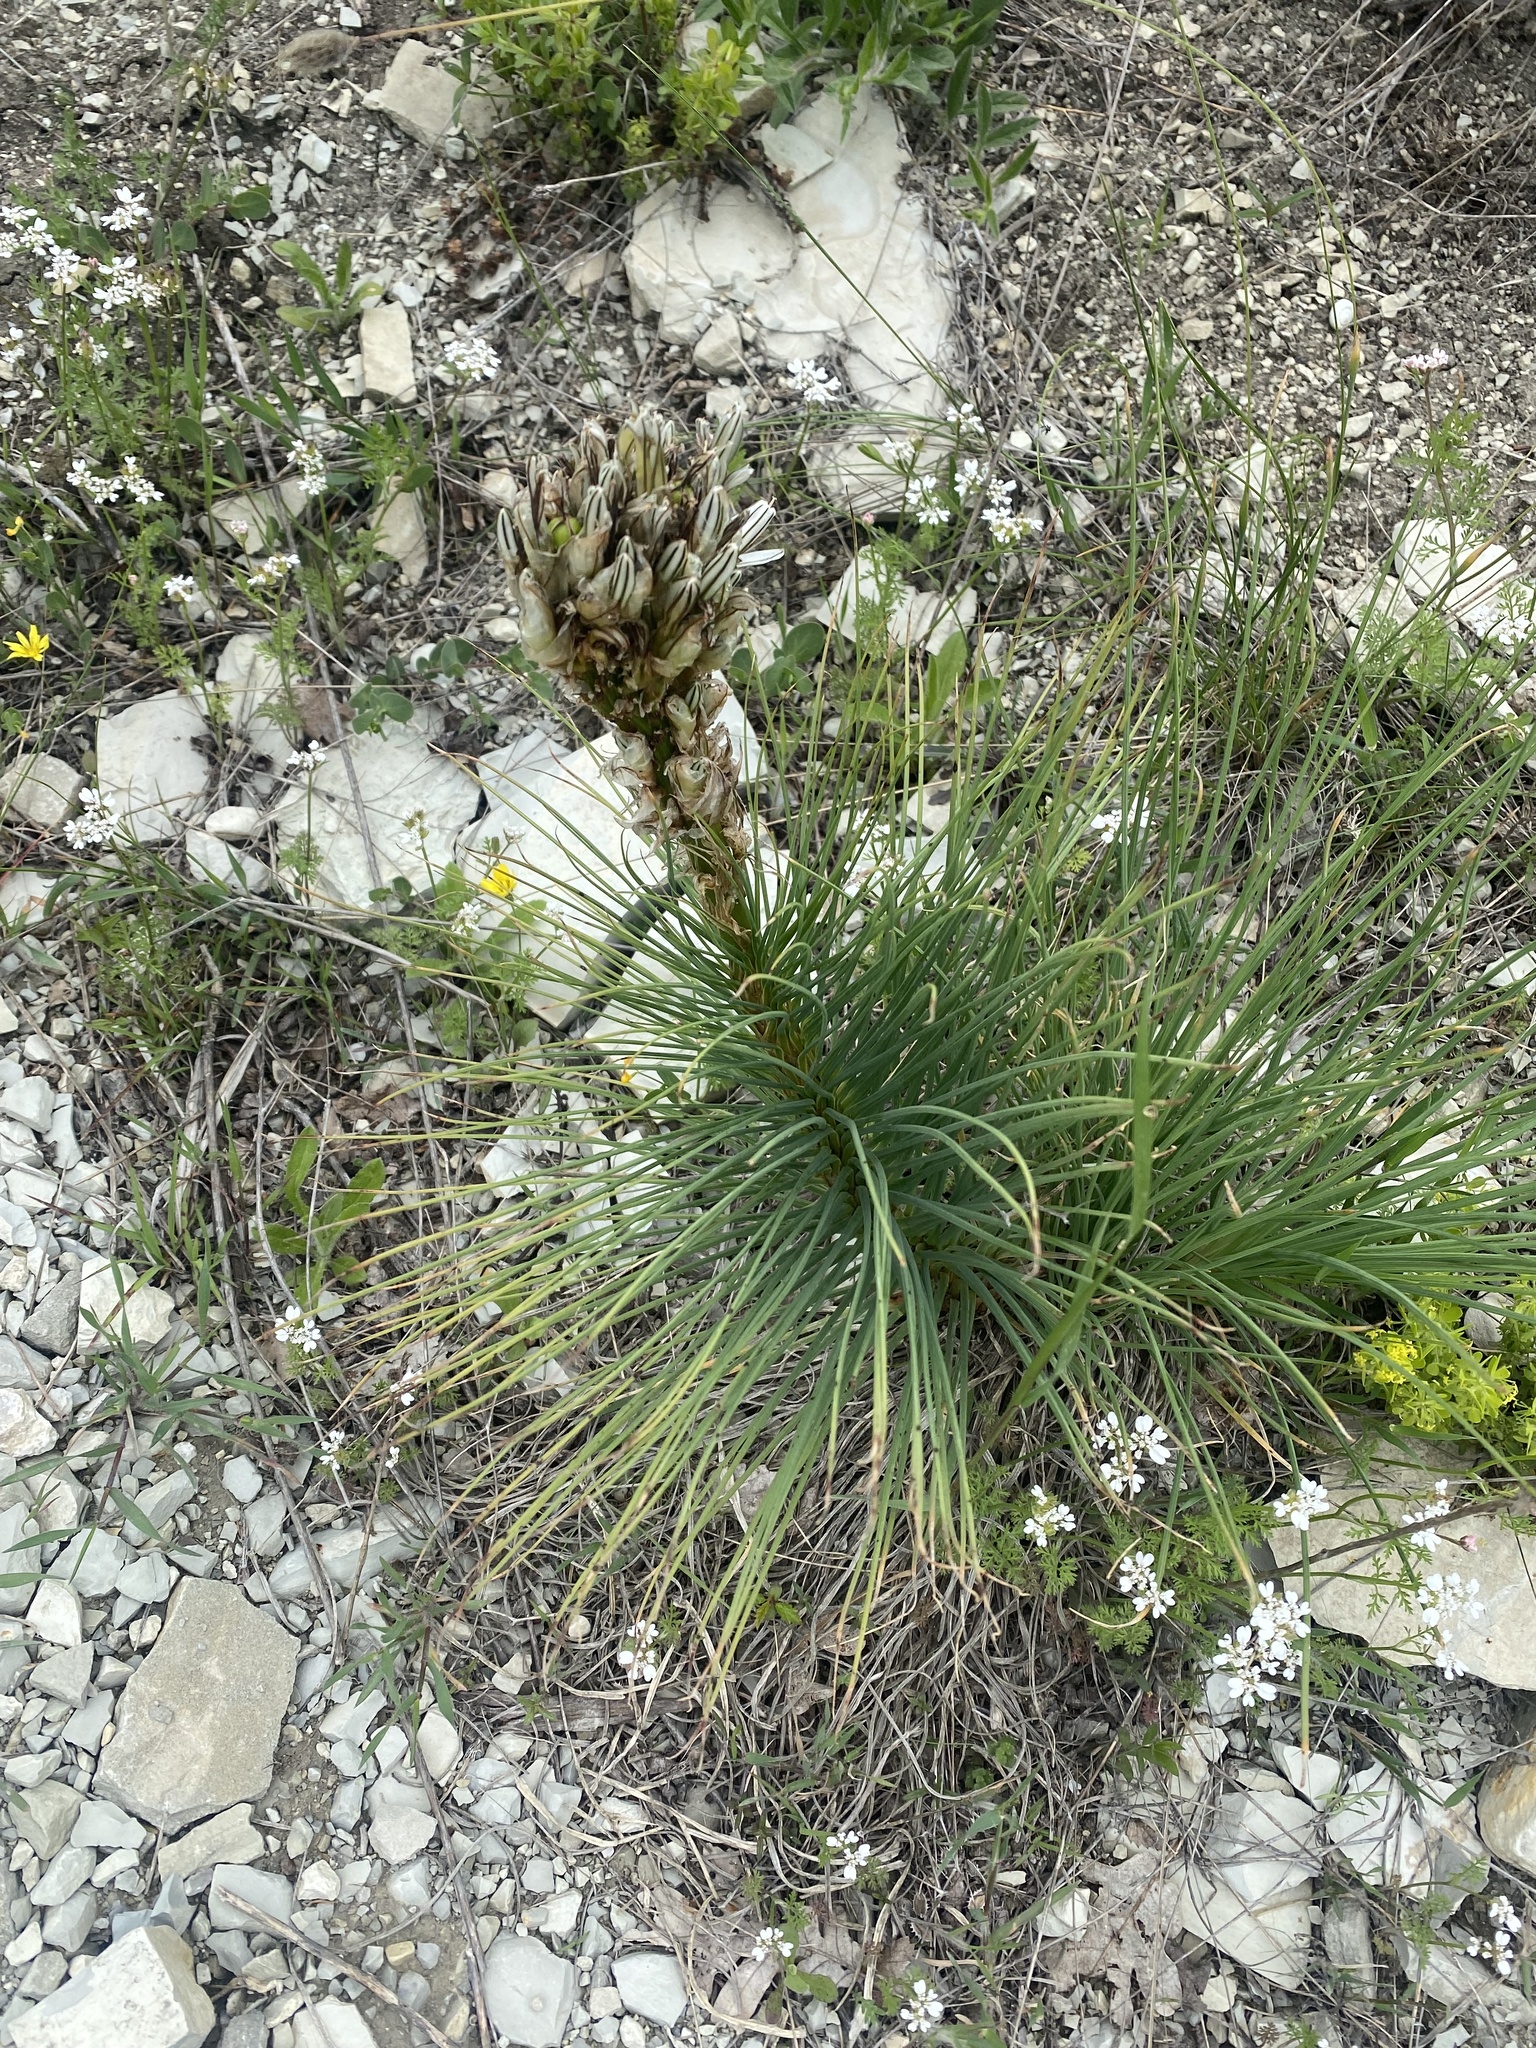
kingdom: Plantae
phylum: Tracheophyta
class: Liliopsida
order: Asparagales
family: Asphodelaceae
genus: Asphodeline
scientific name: Asphodeline taurica
